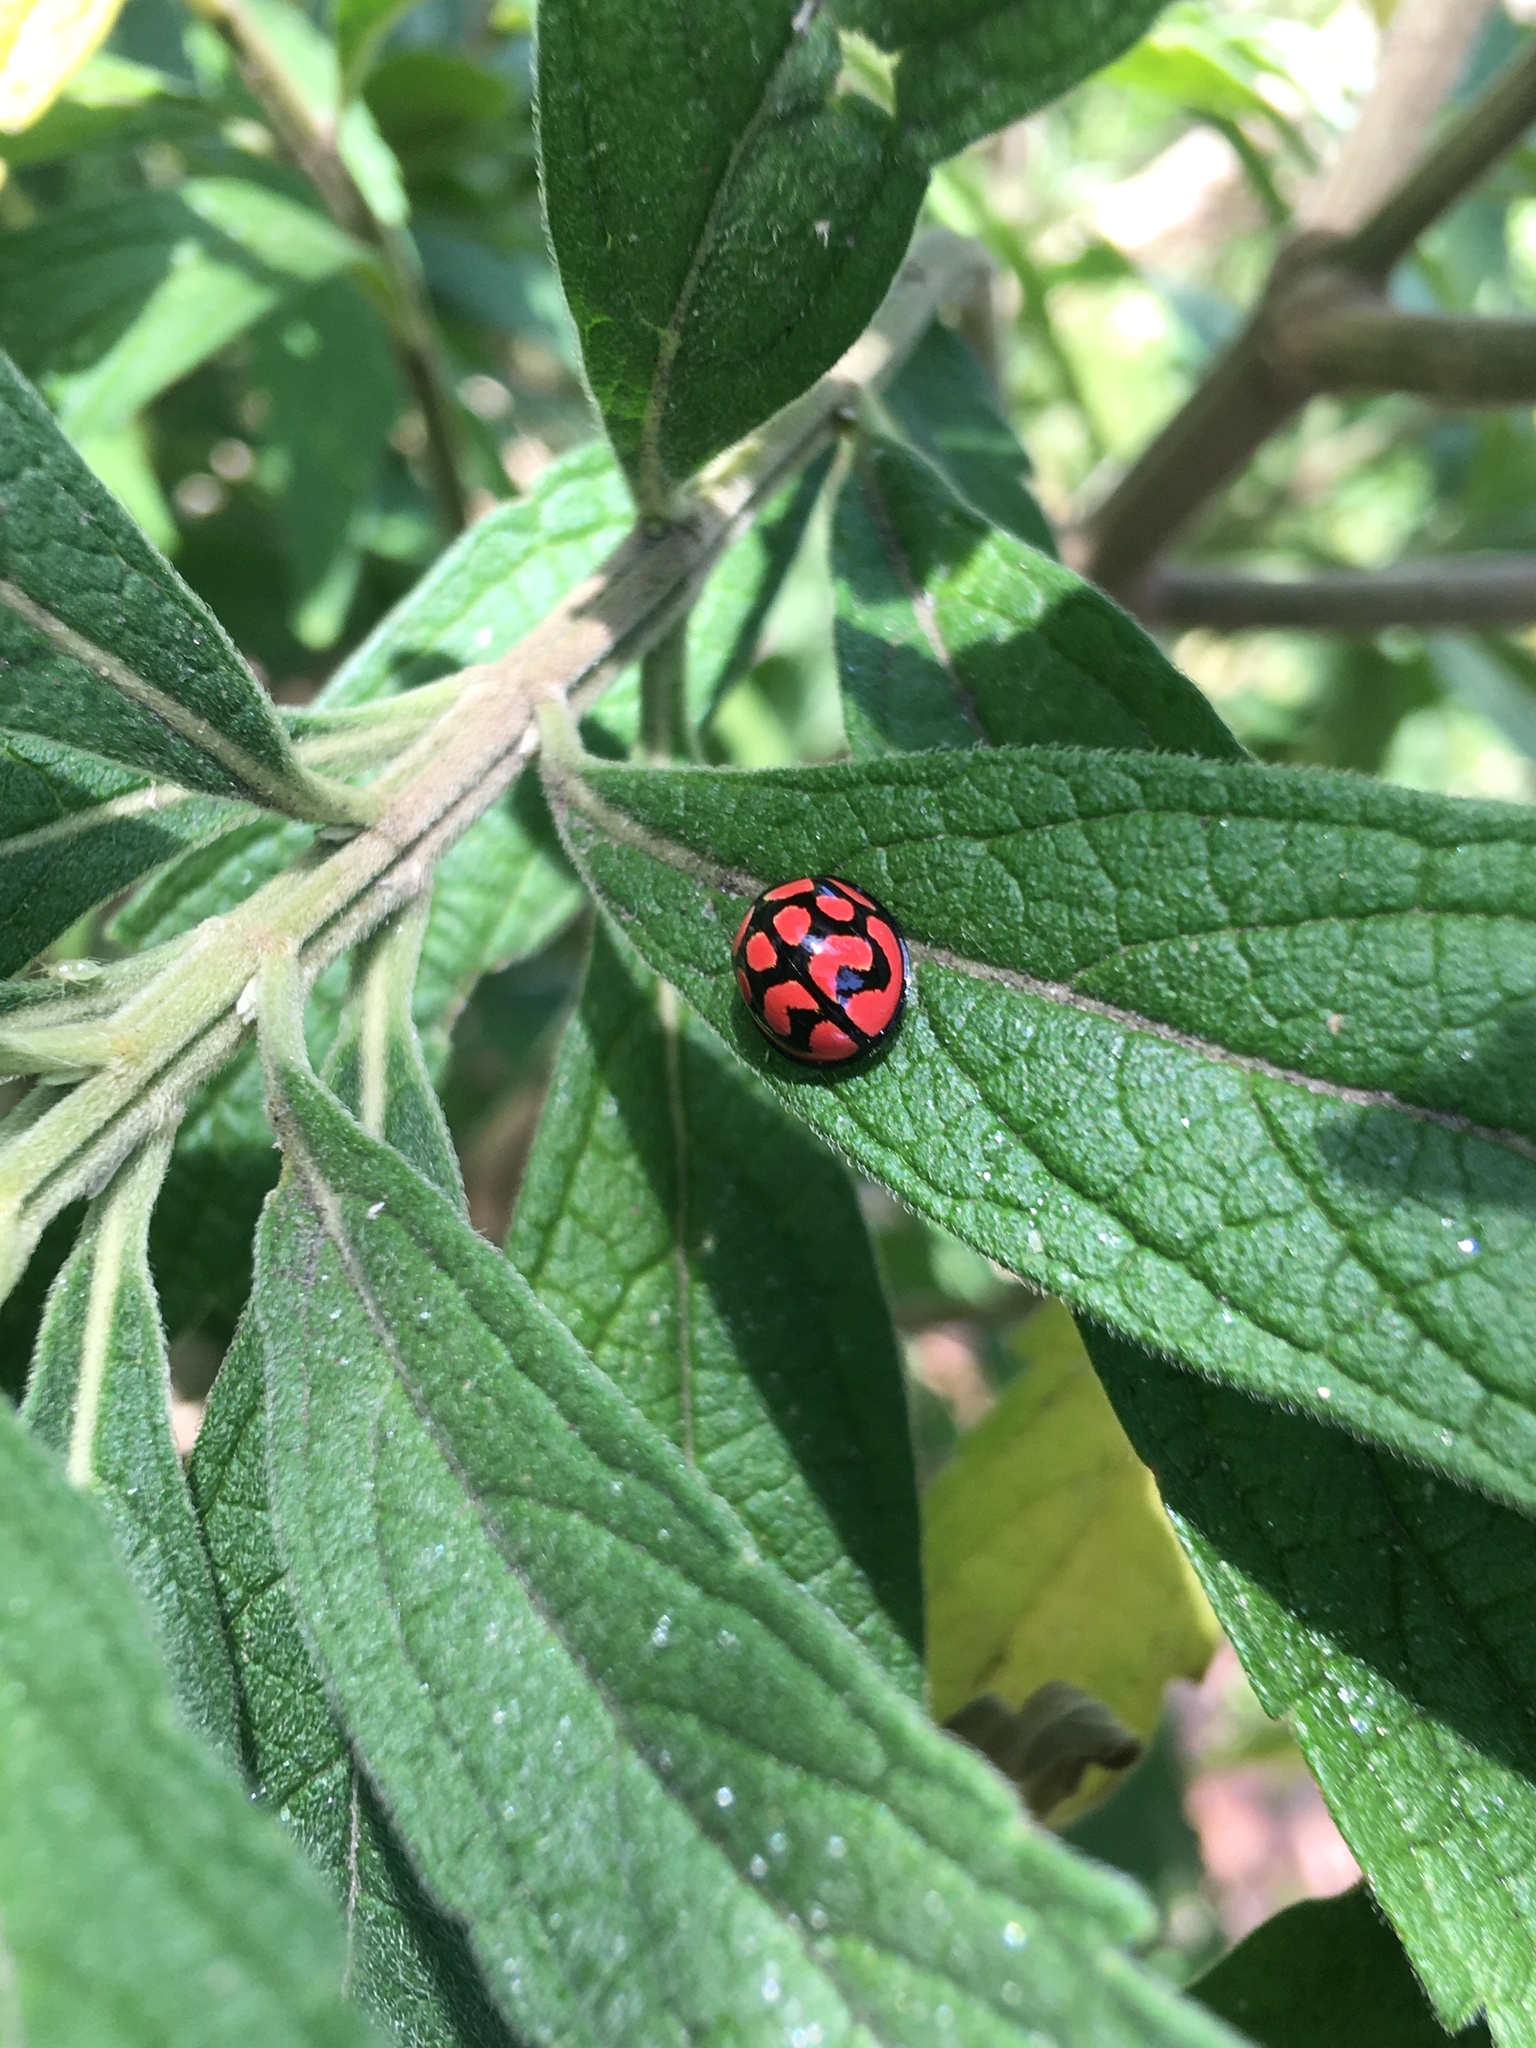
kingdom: Animalia
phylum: Arthropoda
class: Insecta
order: Coleoptera
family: Coccinellidae
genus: Cheilomenes
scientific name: Cheilomenes lunata
